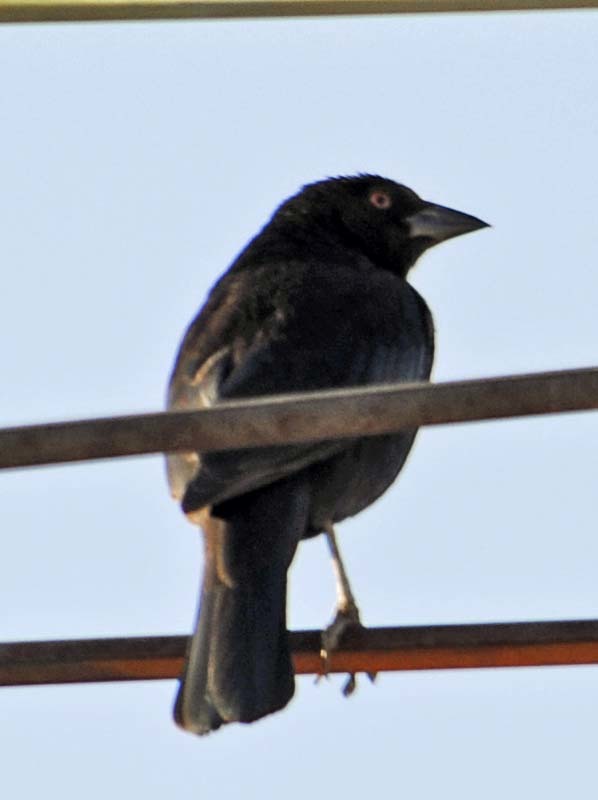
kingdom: Animalia
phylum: Chordata
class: Aves
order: Passeriformes
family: Icteridae
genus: Molothrus
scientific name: Molothrus aeneus
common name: Bronzed cowbird
